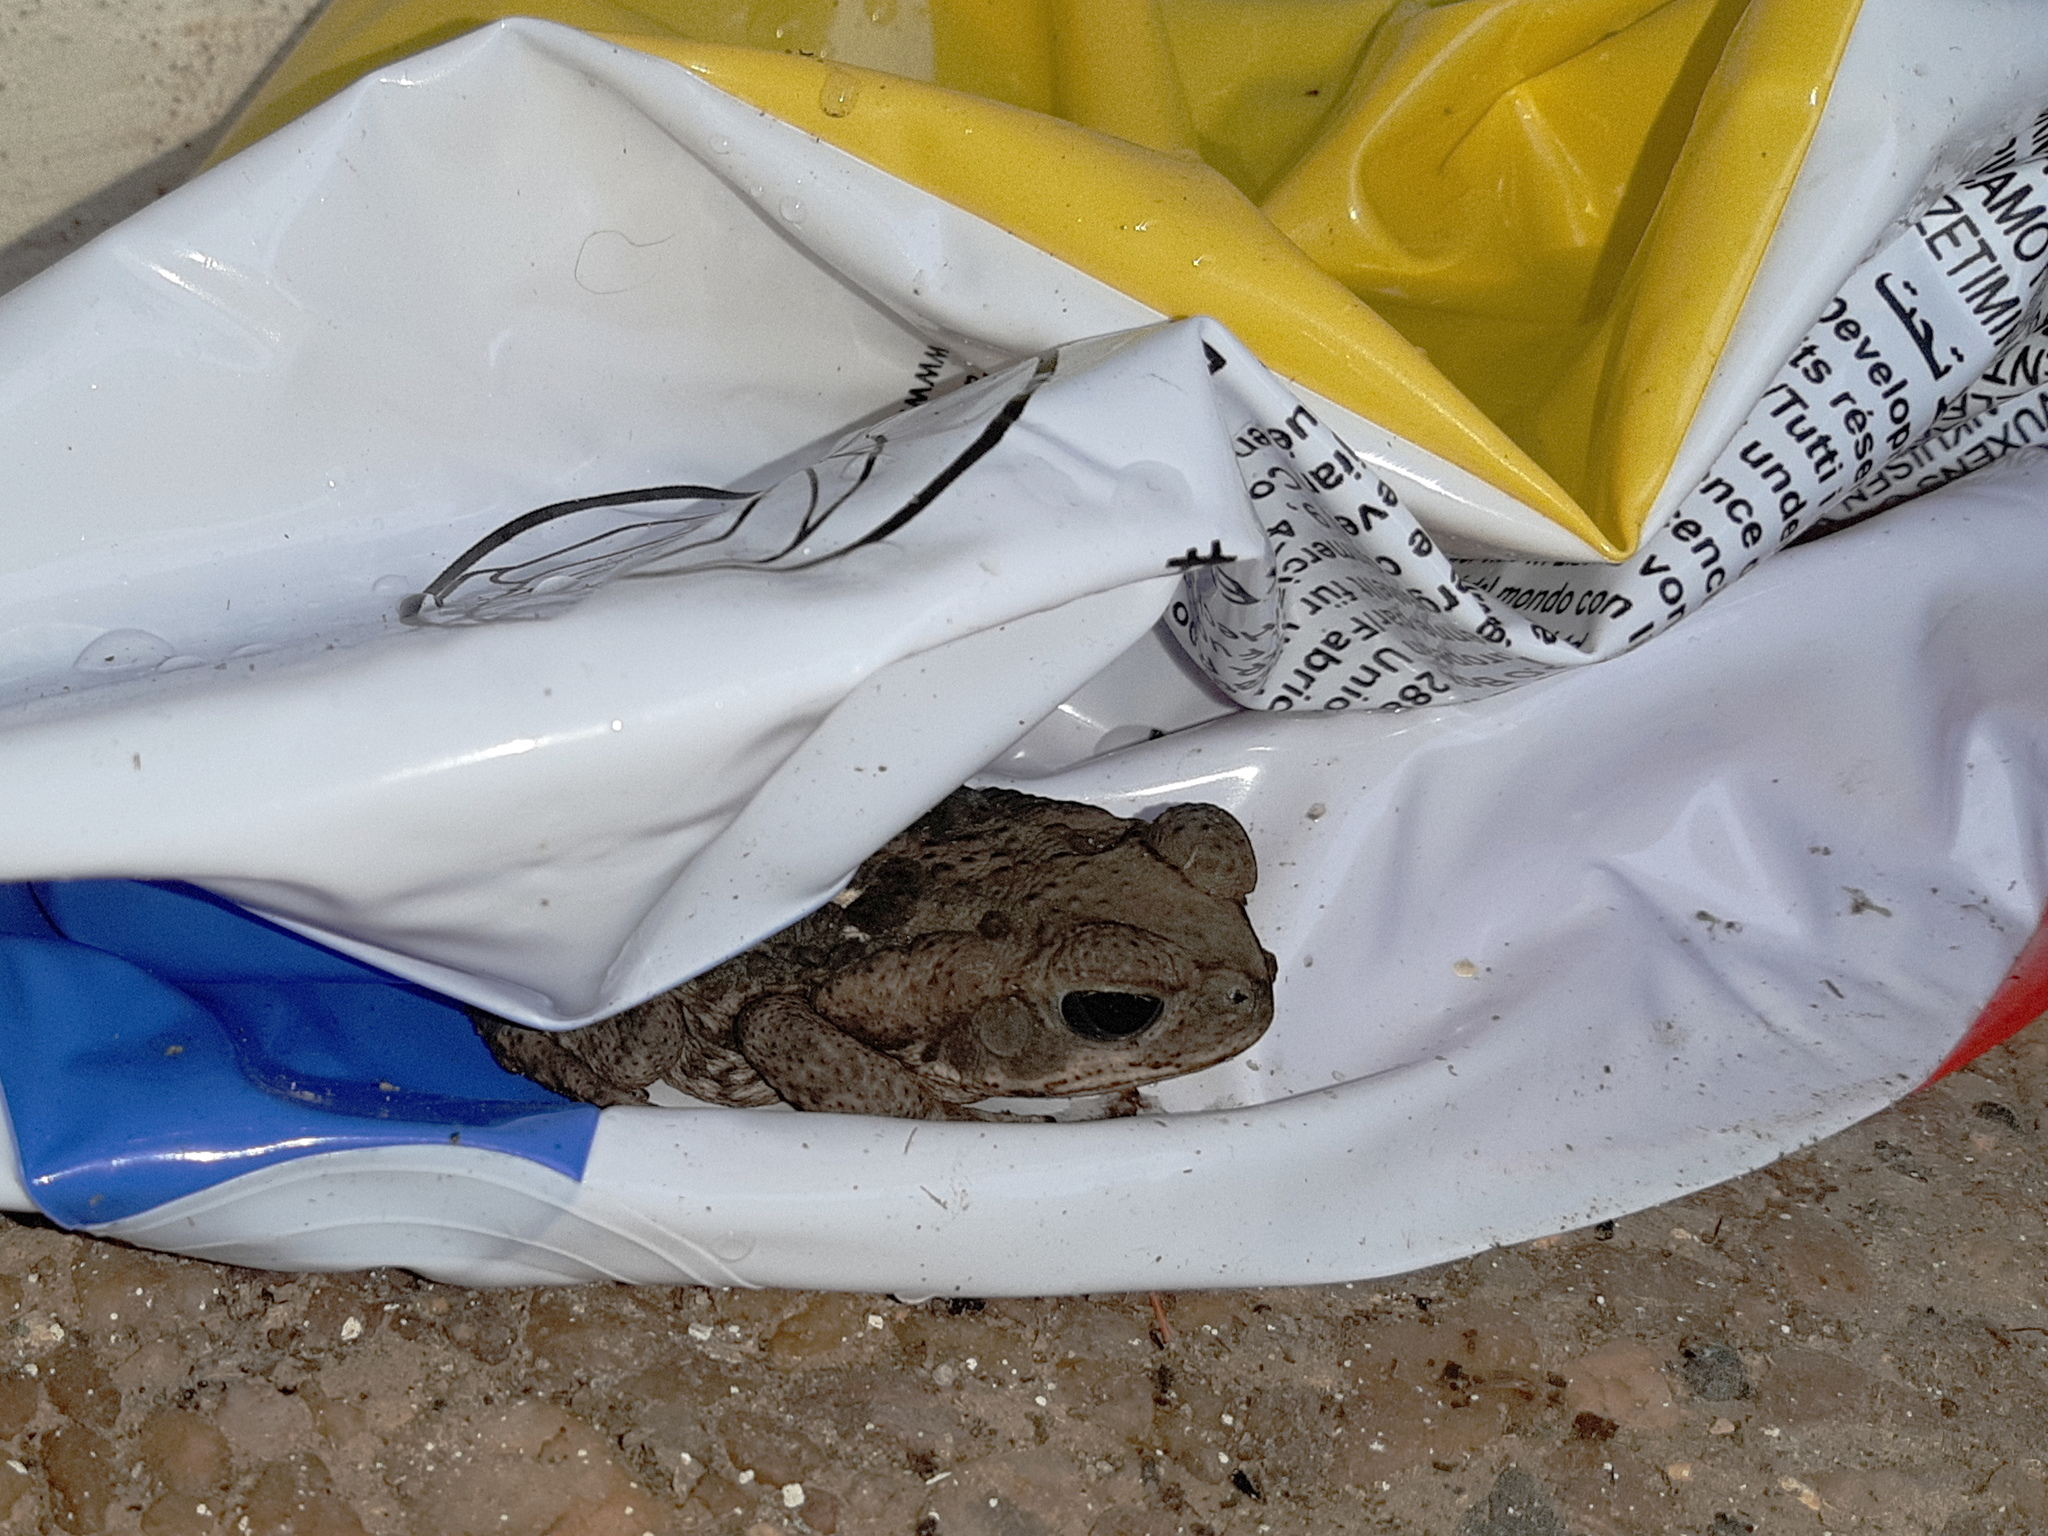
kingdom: Animalia
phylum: Chordata
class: Amphibia
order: Anura
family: Bufonidae
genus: Rhinella
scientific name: Rhinella horribilis
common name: Mesoamerican cane toad
